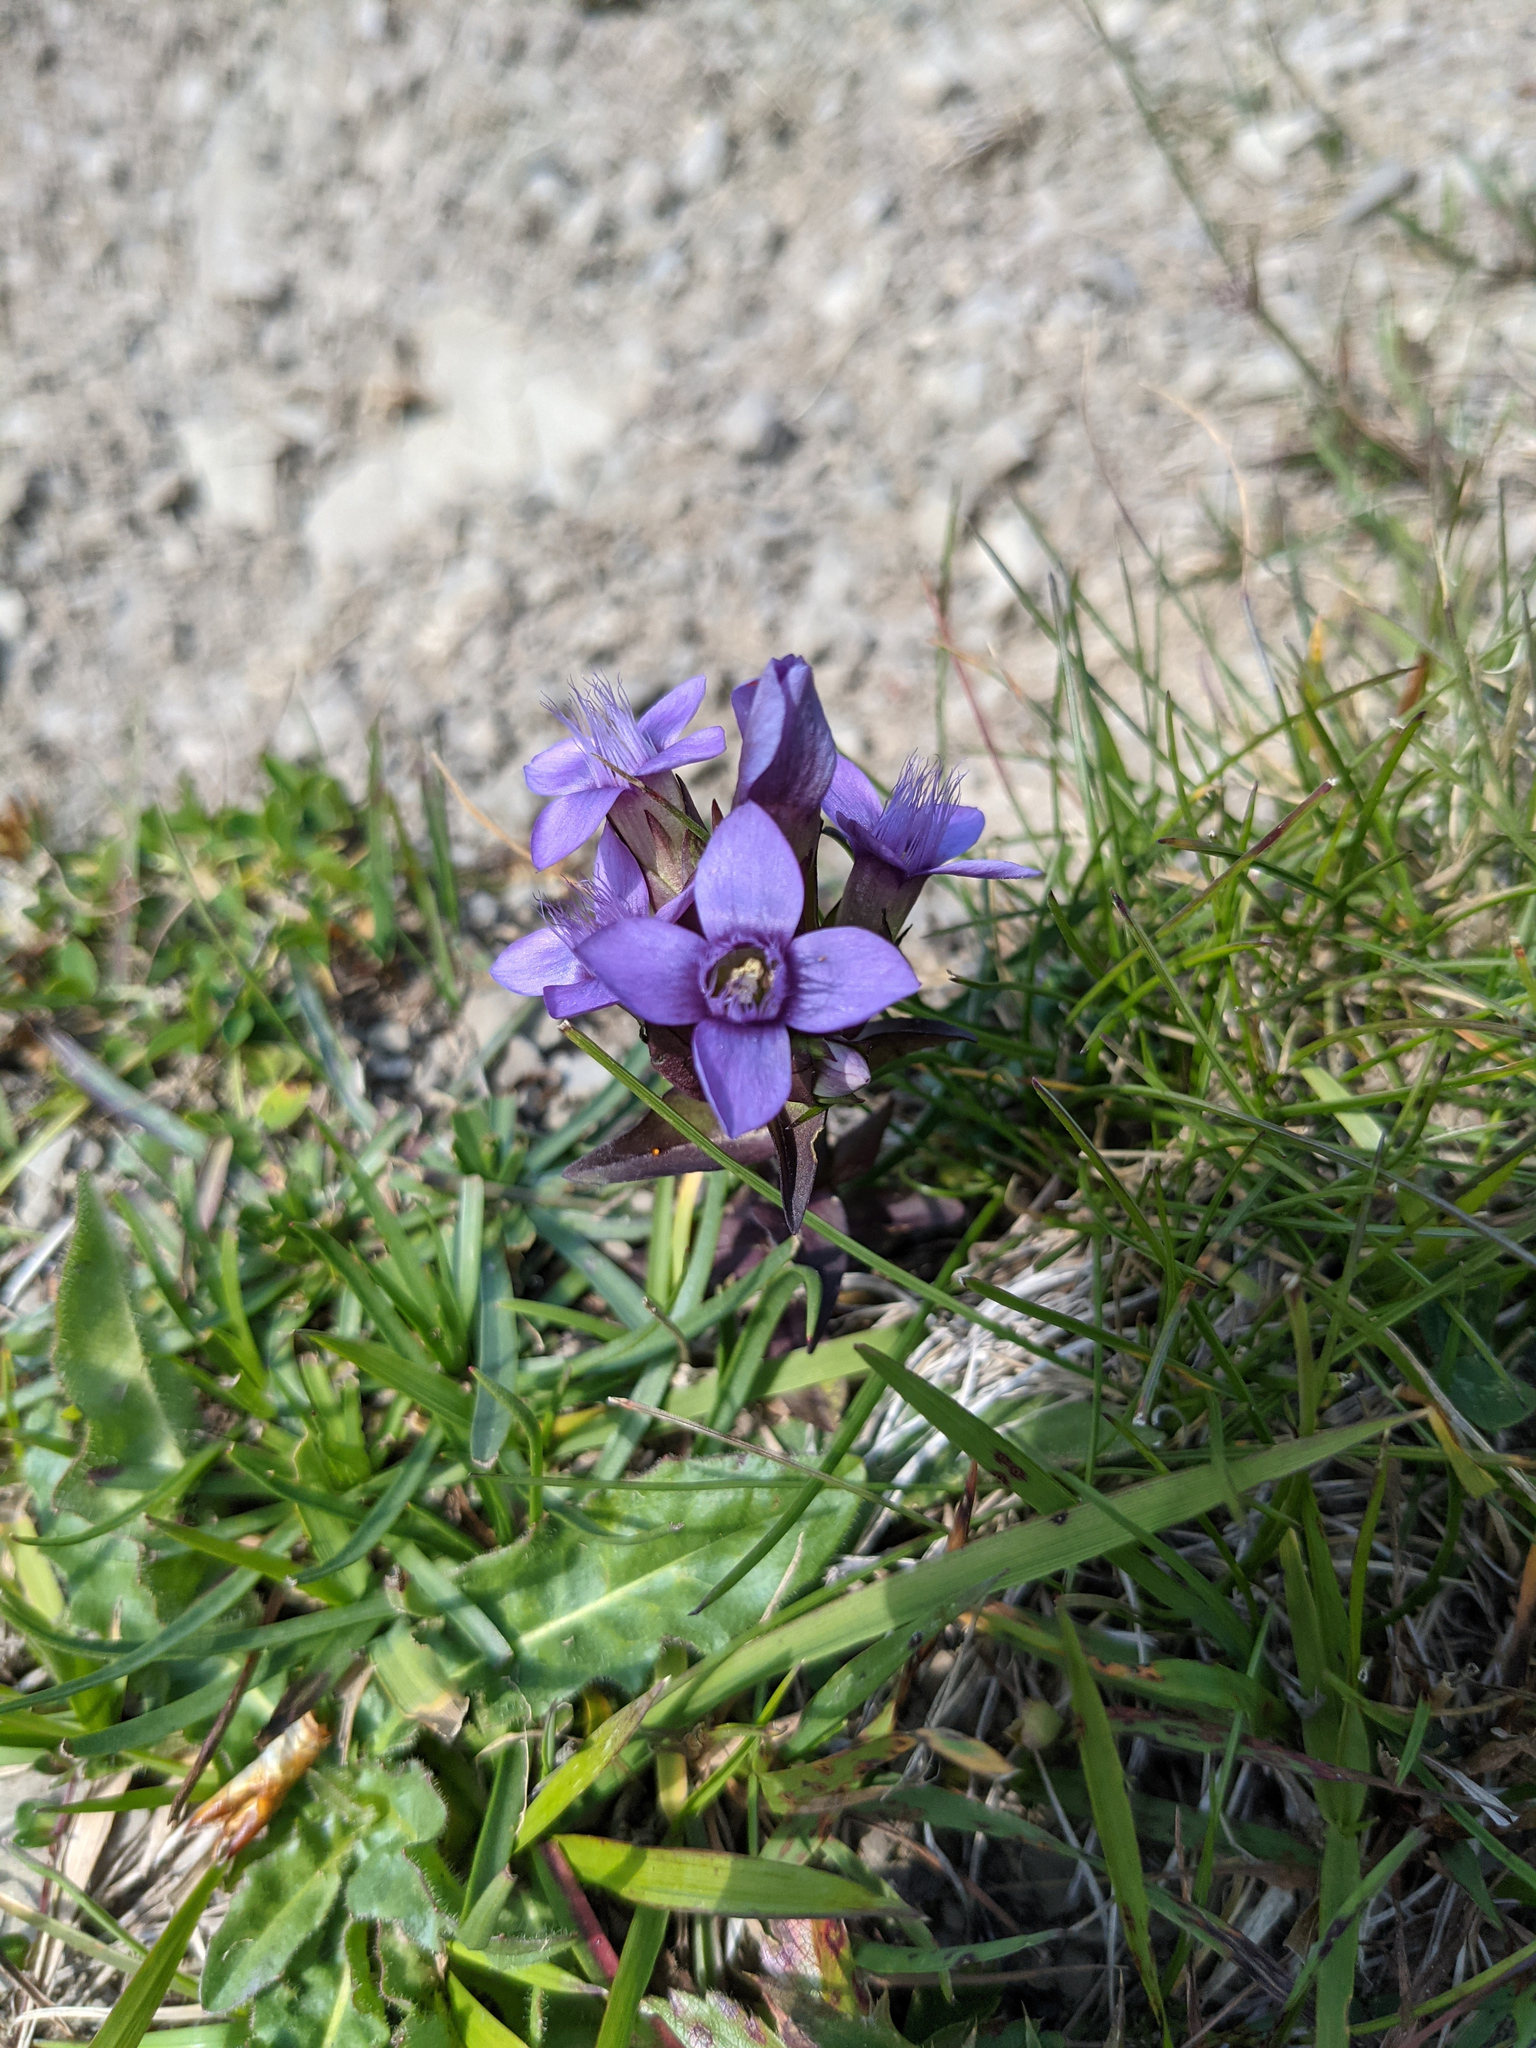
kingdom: Plantae
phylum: Tracheophyta
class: Magnoliopsida
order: Gentianales
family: Gentianaceae
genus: Gentianella
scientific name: Gentianella campestris
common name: Field gentian
